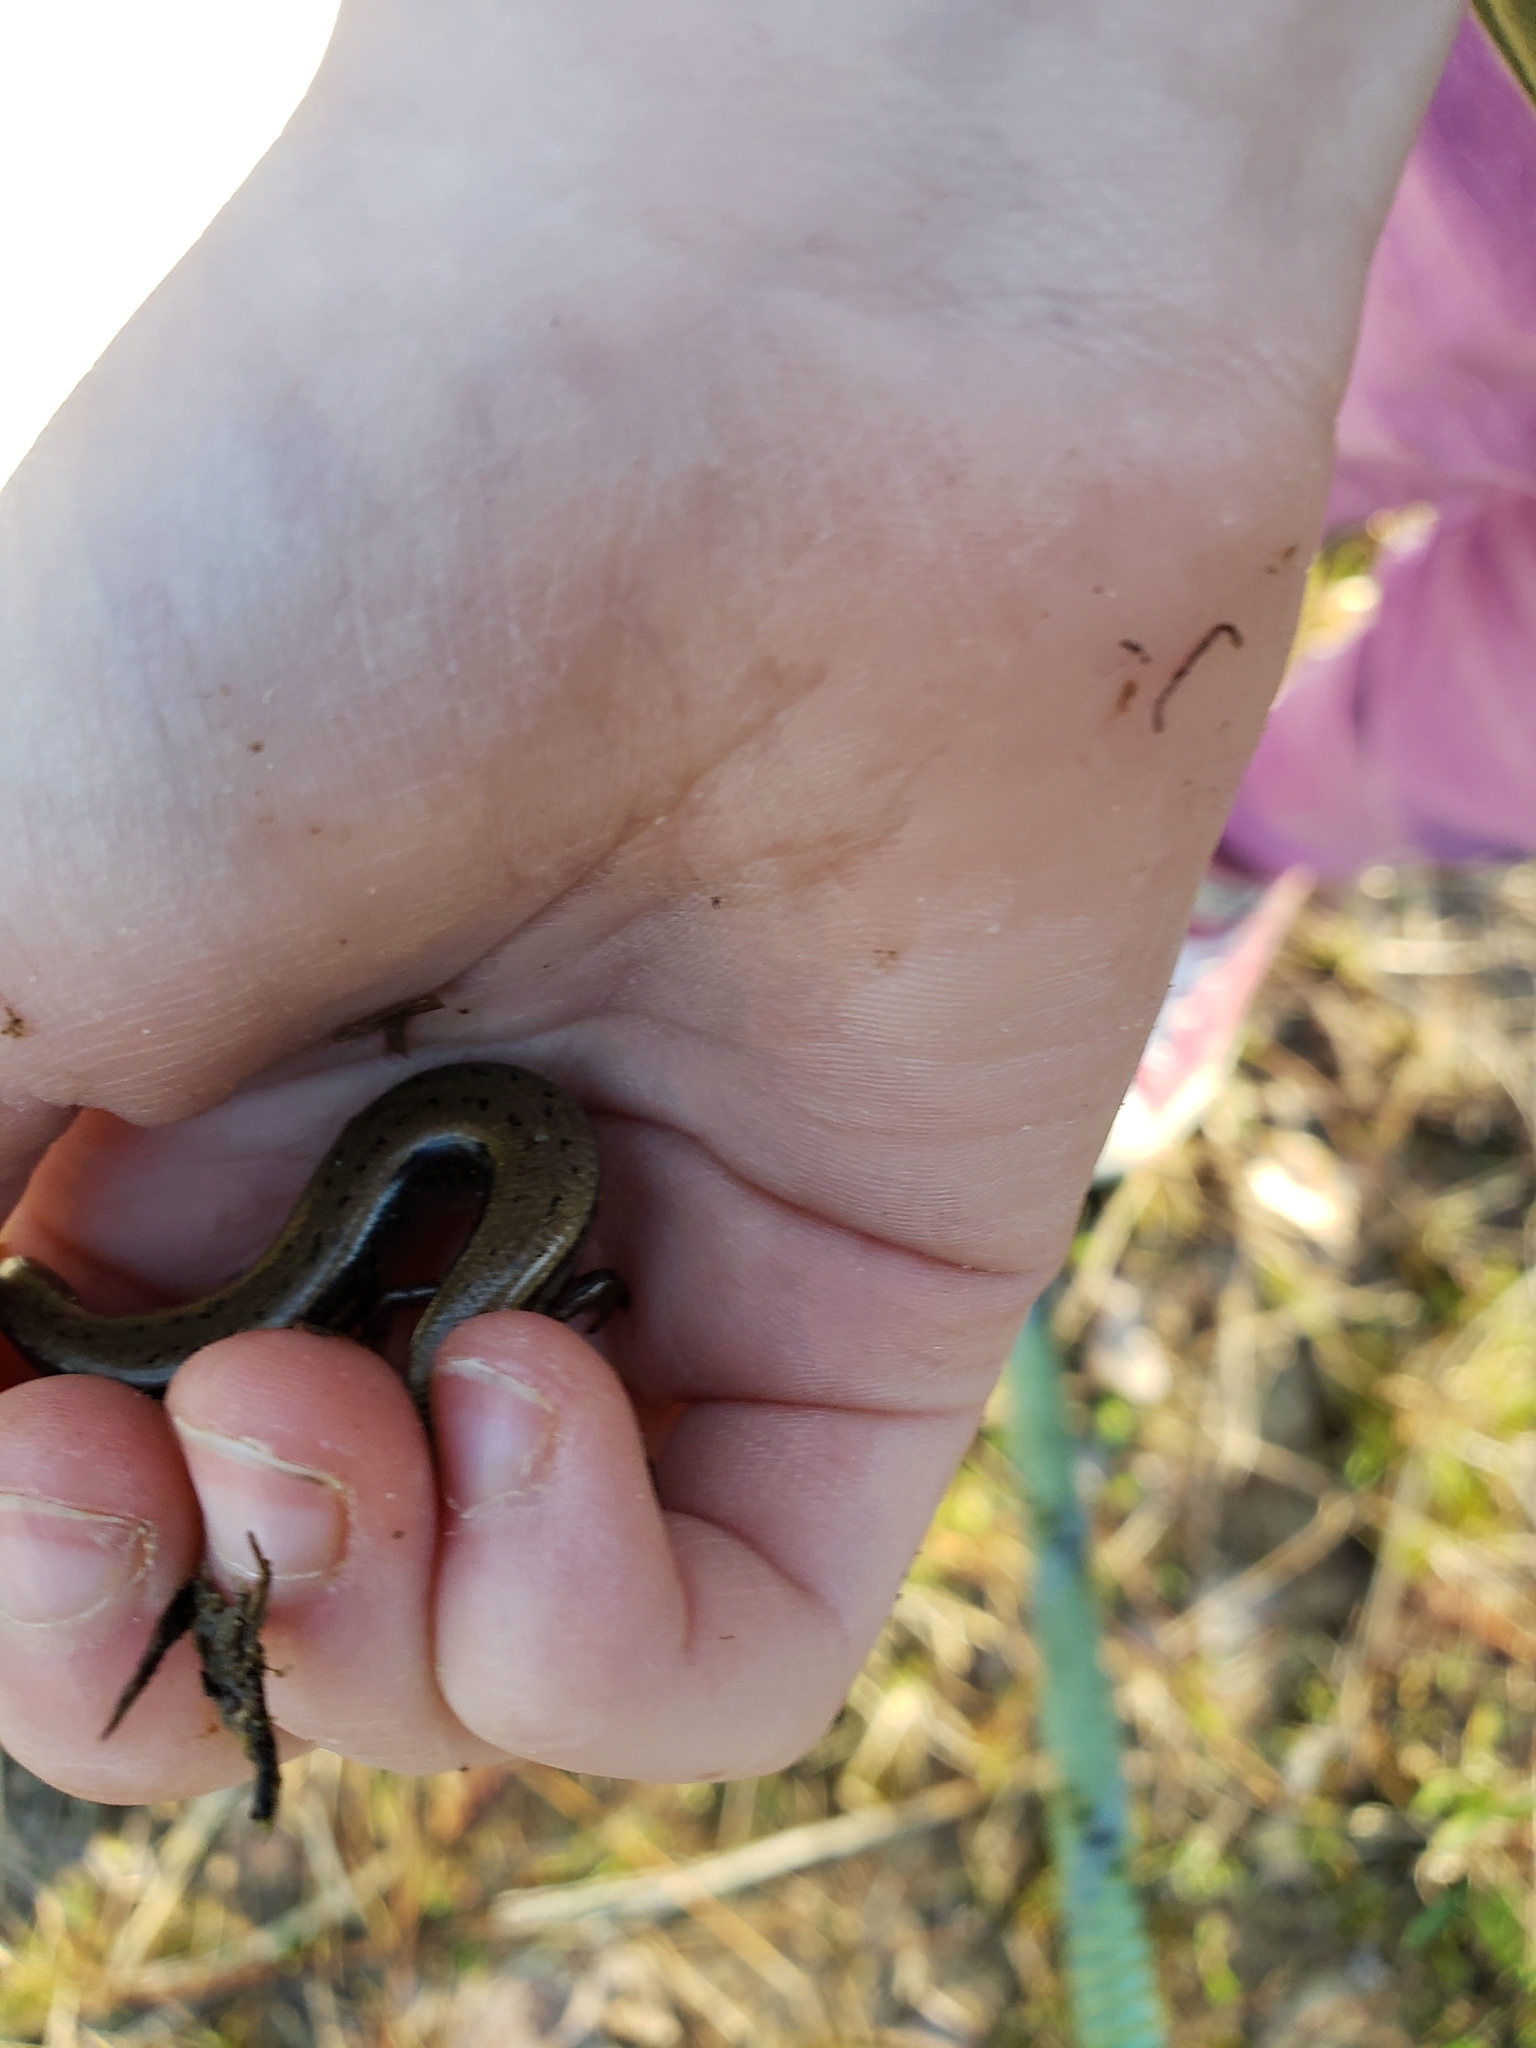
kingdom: Animalia
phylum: Chordata
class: Squamata
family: Scincidae
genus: Scincella
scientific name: Scincella lateralis
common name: Ground skink
